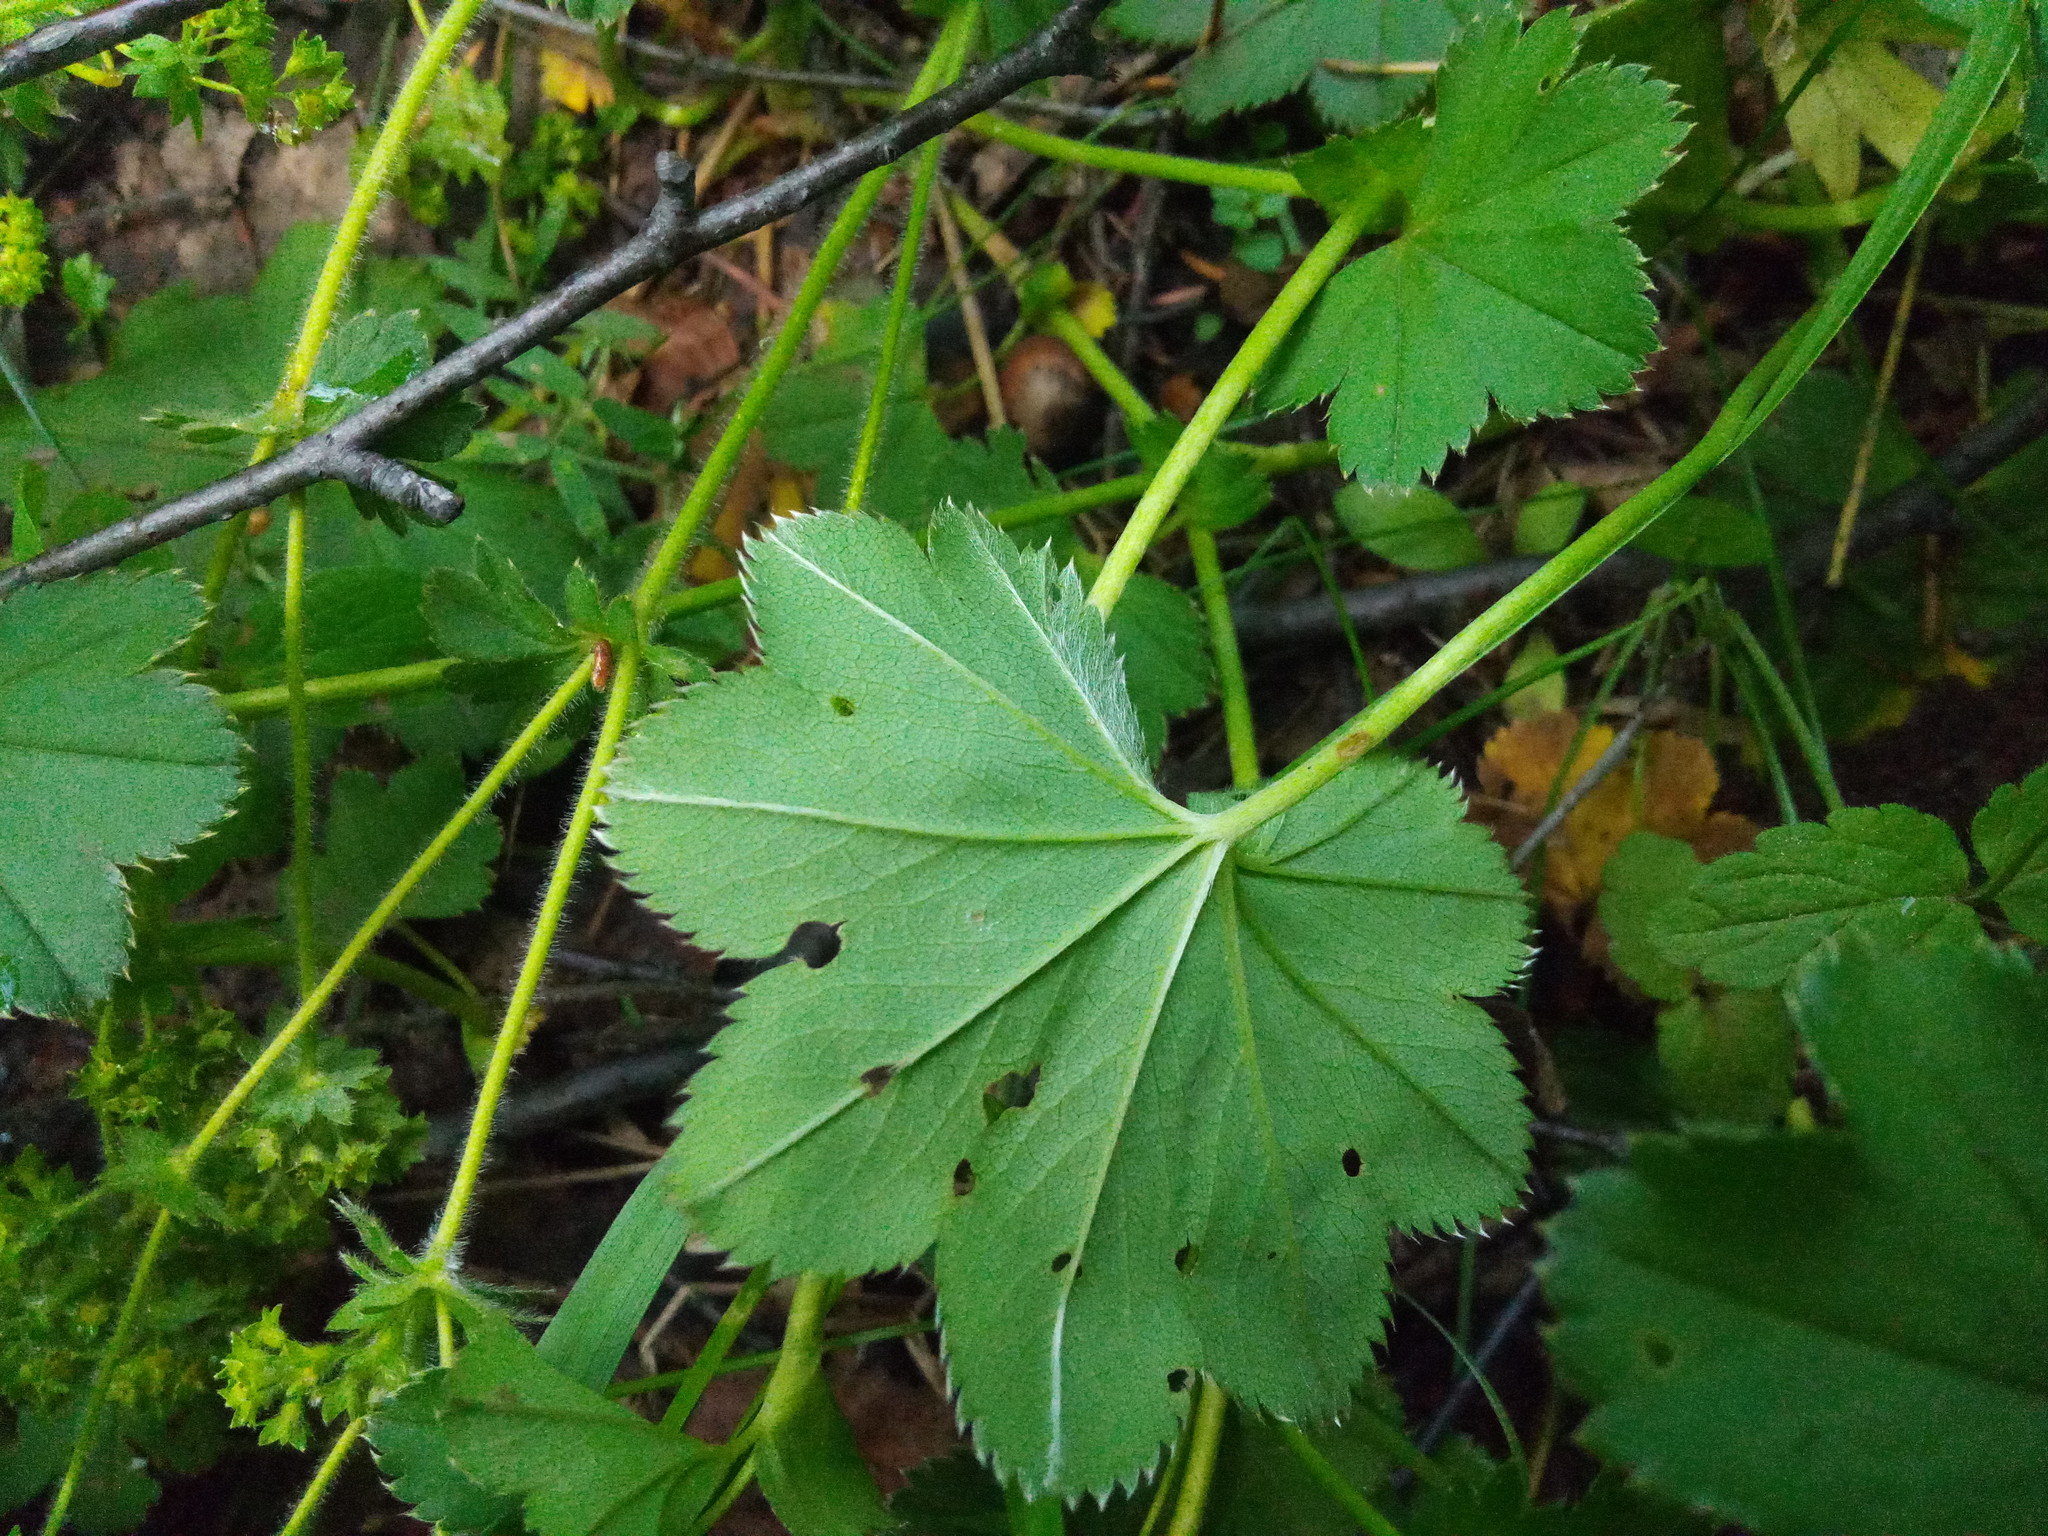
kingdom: Plantae
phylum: Tracheophyta
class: Magnoliopsida
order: Rosales
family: Rosaceae
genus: Alchemilla
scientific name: Alchemilla baltica
